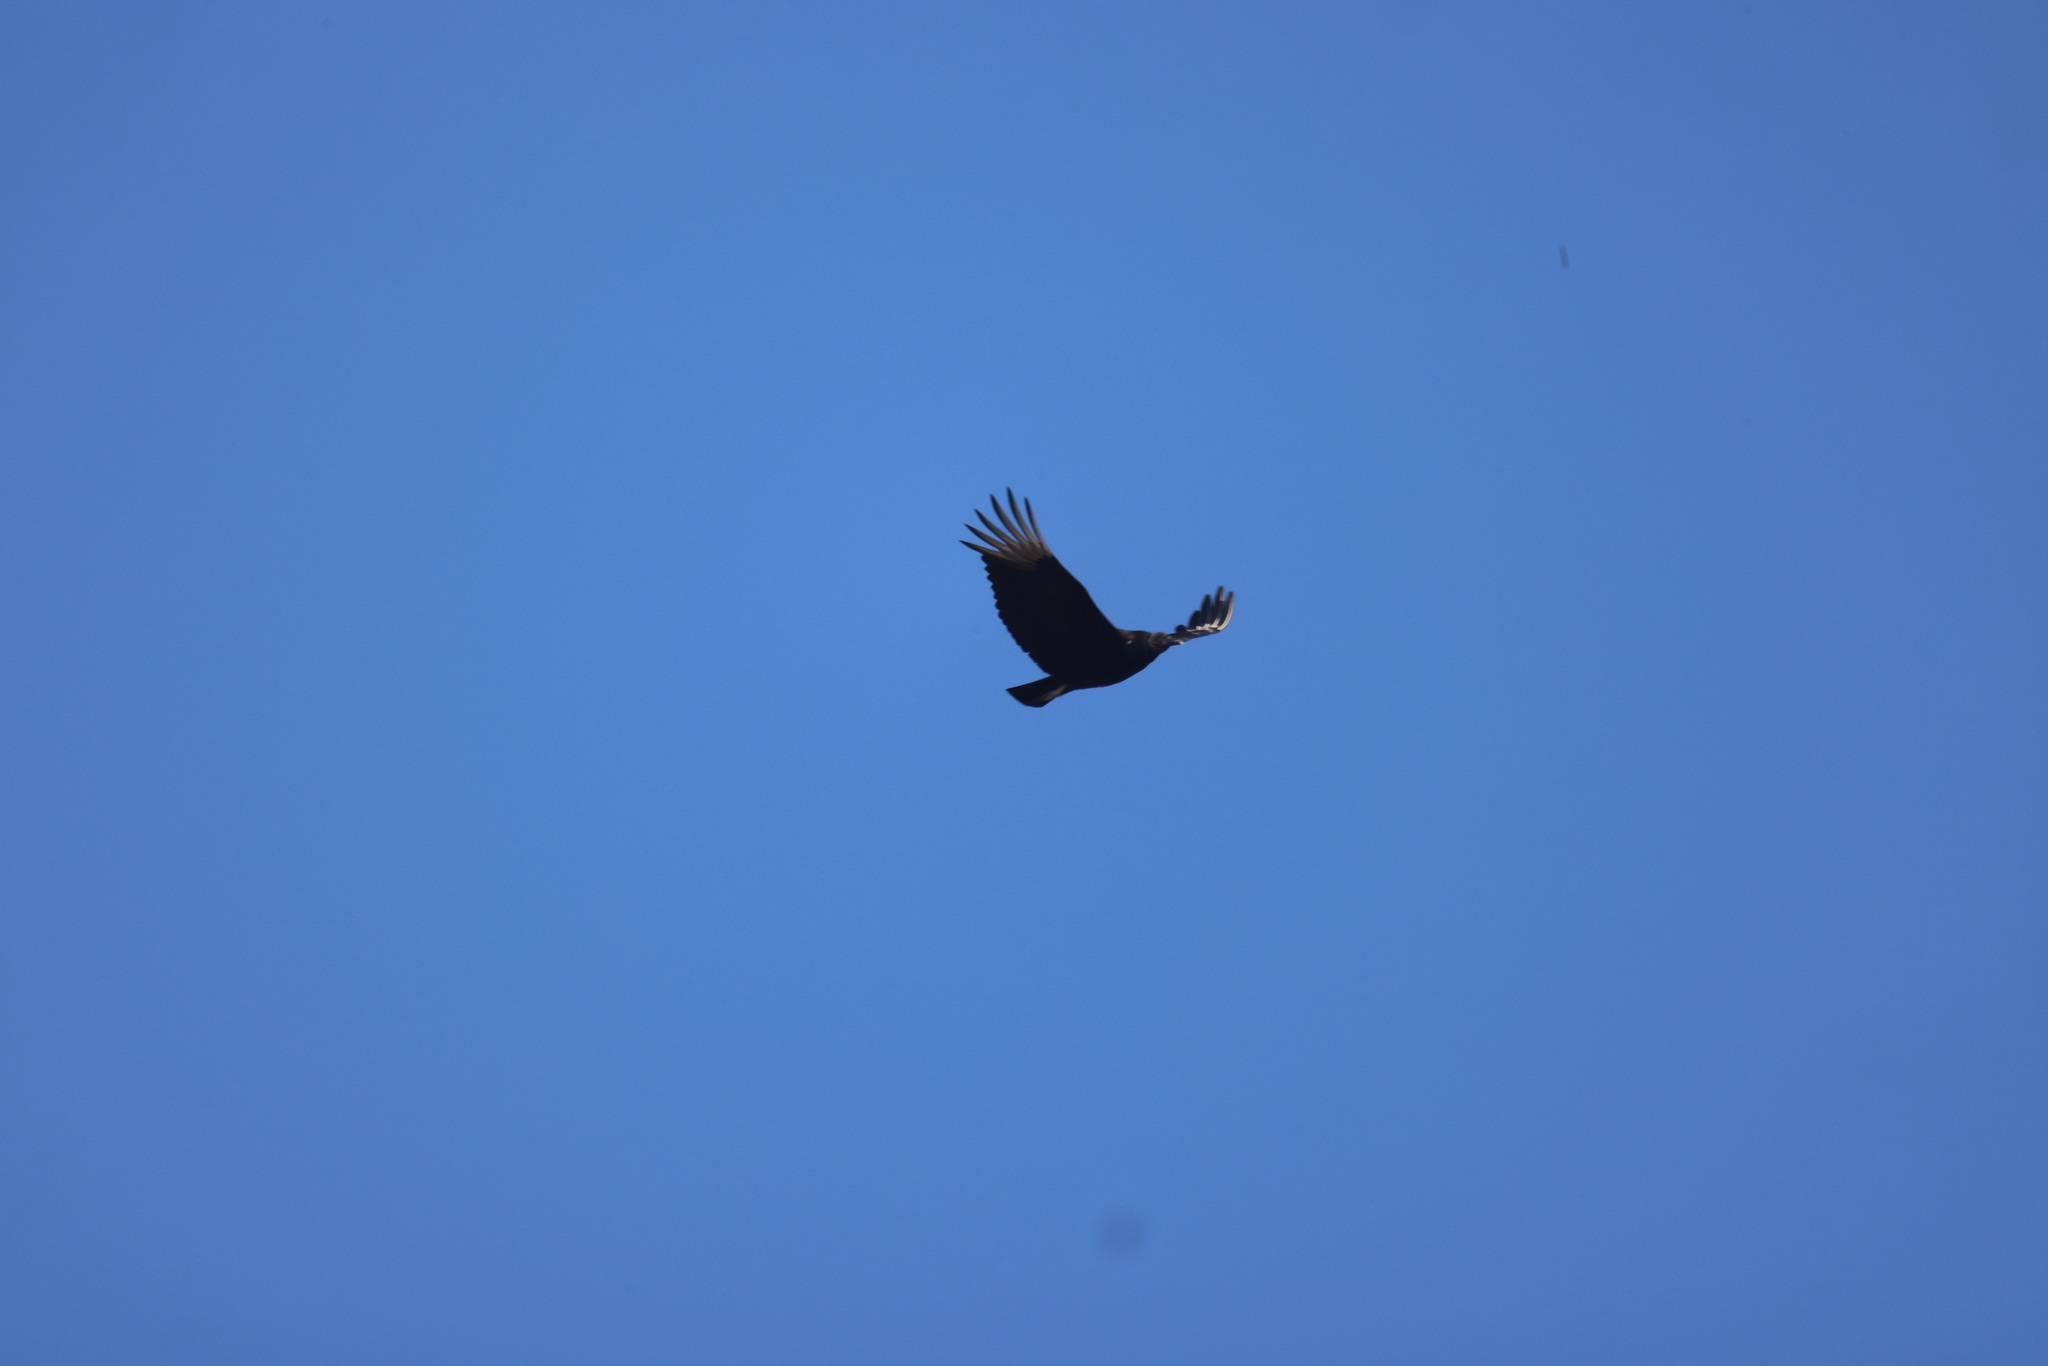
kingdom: Animalia
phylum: Chordata
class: Aves
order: Accipitriformes
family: Cathartidae
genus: Coragyps
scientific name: Coragyps atratus
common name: Black vulture
